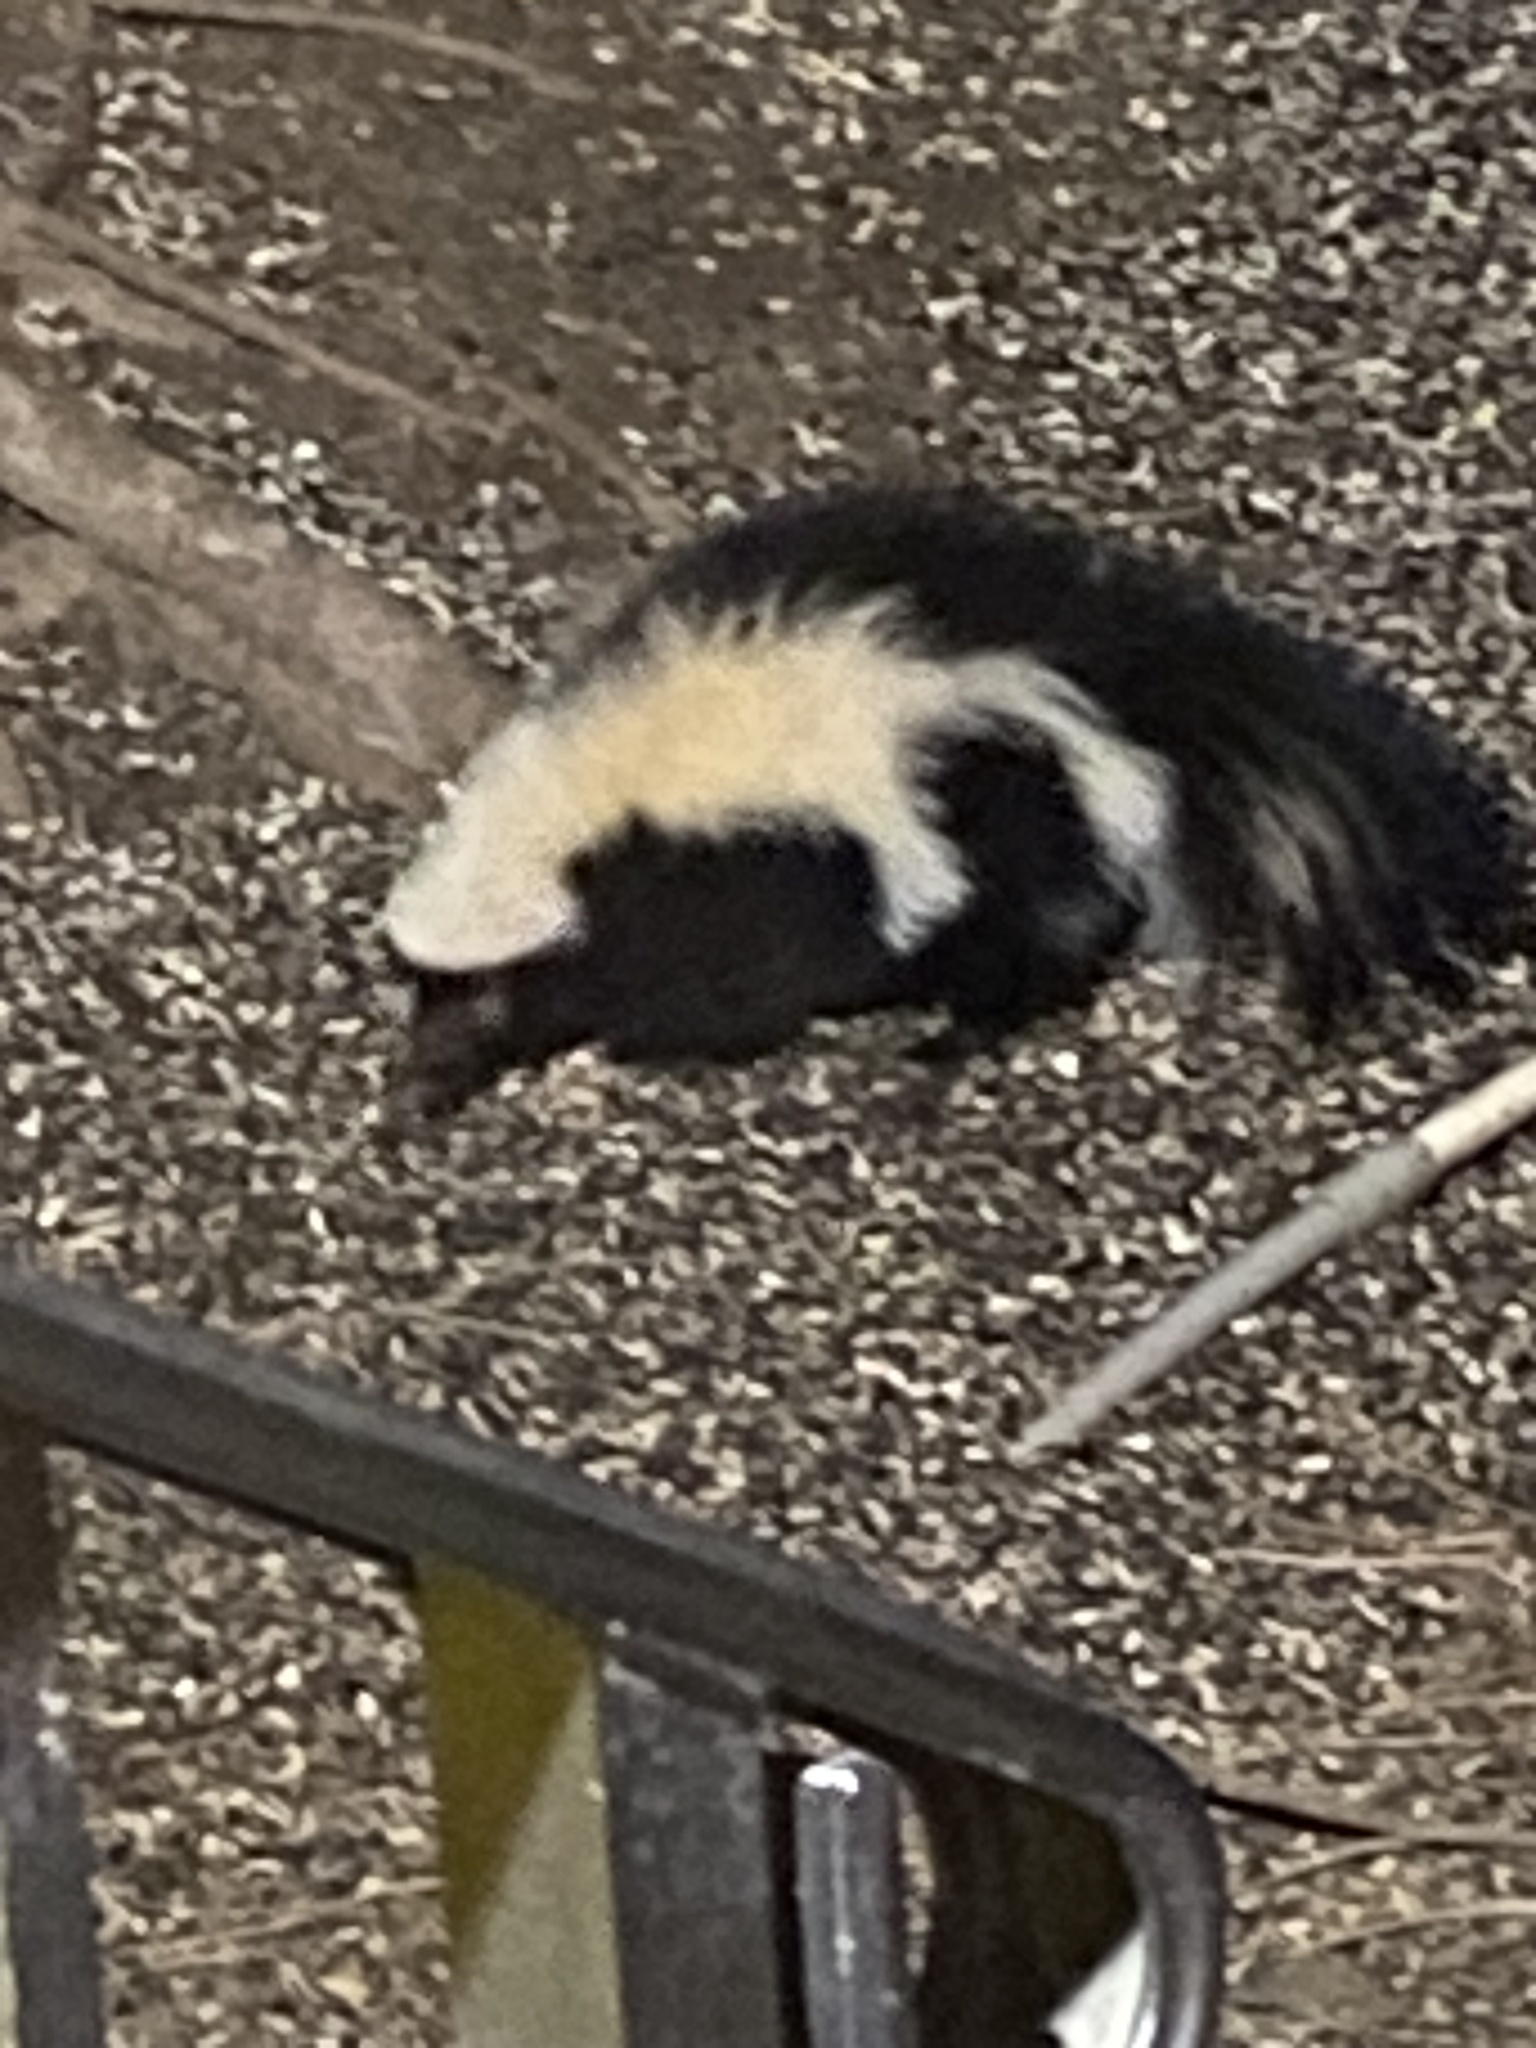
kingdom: Animalia
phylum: Chordata
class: Mammalia
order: Carnivora
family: Mephitidae
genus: Mephitis
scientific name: Mephitis mephitis
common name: Striped skunk
